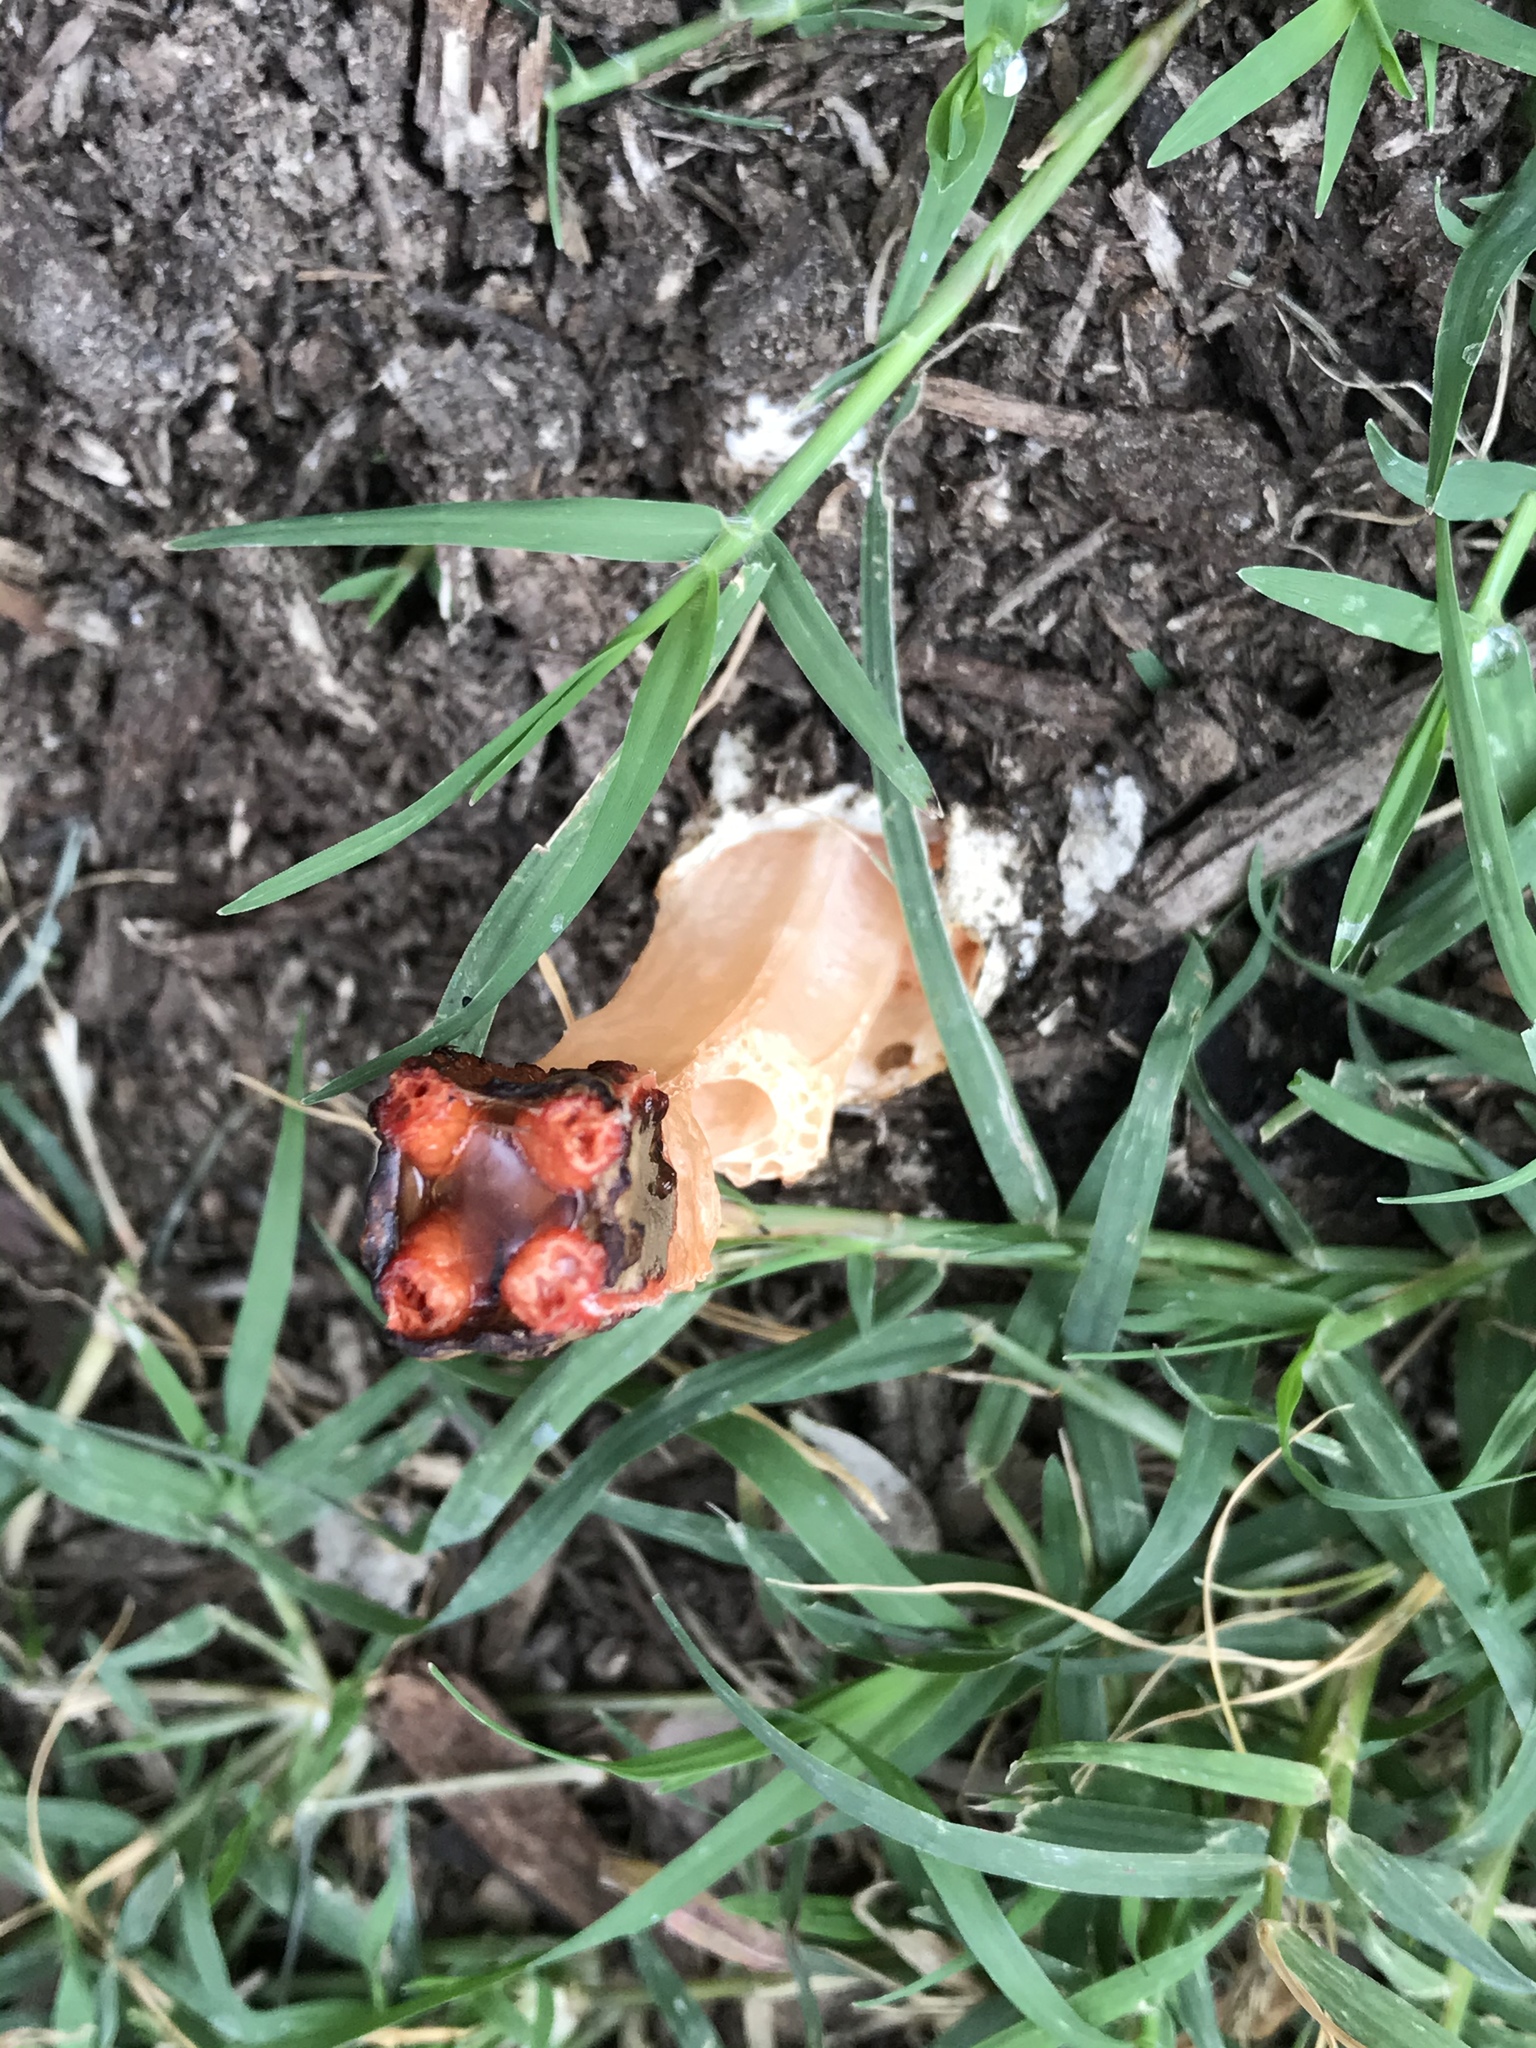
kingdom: Fungi
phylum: Basidiomycota
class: Agaricomycetes
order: Phallales
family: Phallaceae
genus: Lysurus
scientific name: Lysurus mokusin
